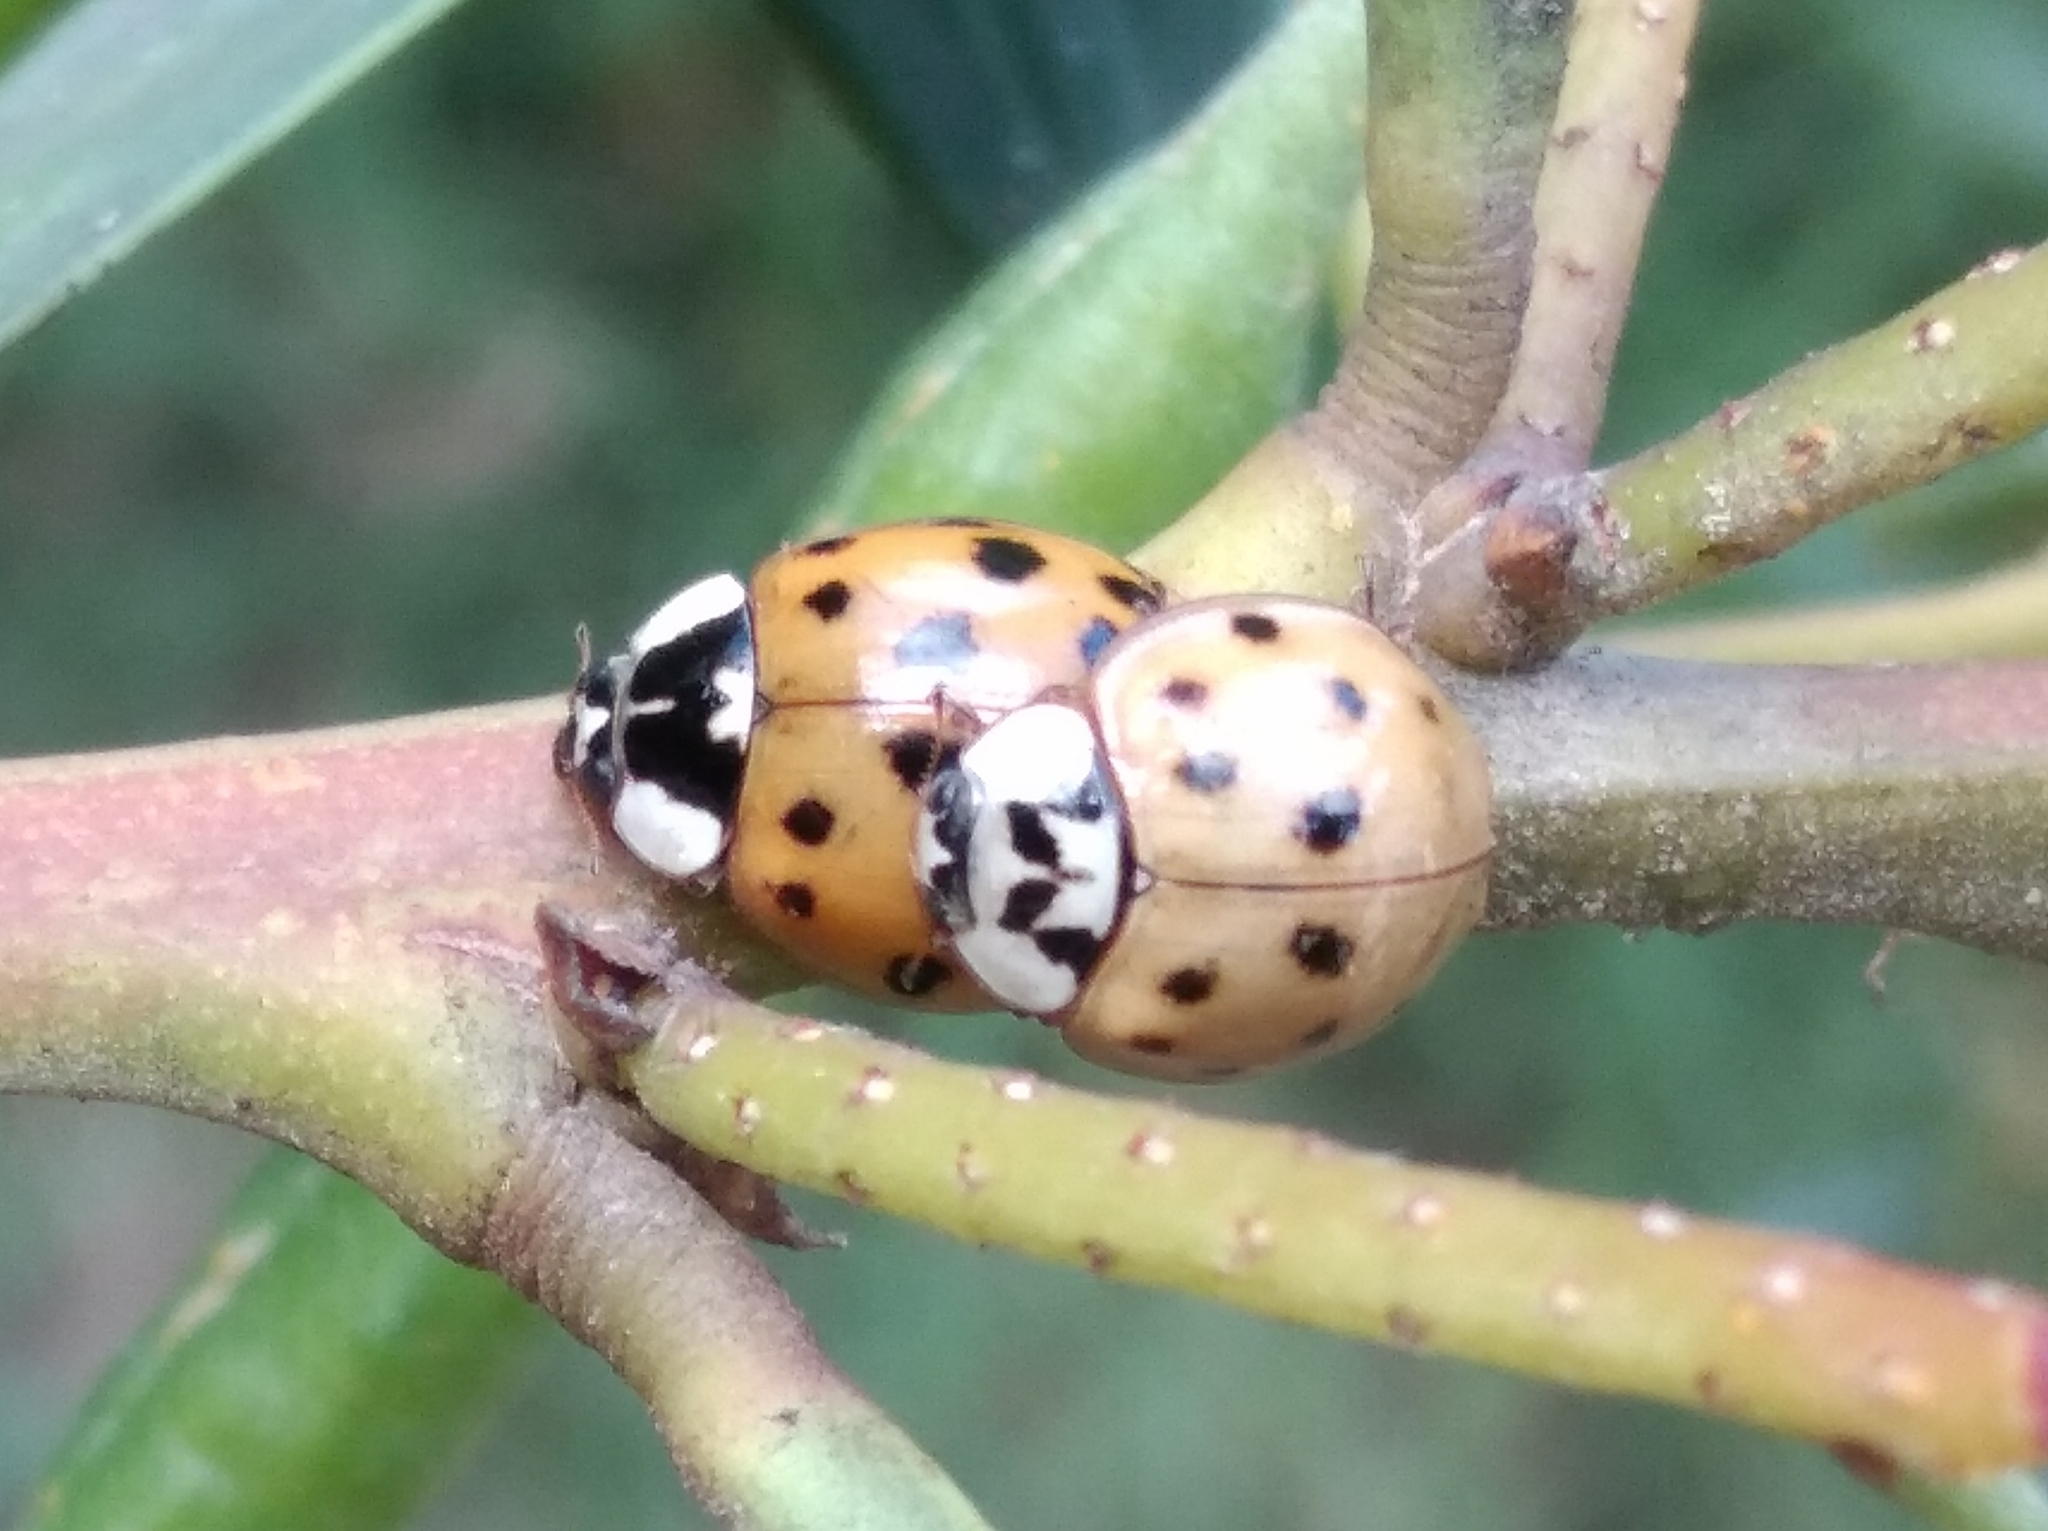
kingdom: Animalia
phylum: Arthropoda
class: Insecta
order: Coleoptera
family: Coccinellidae
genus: Harmonia
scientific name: Harmonia axyridis
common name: Harlequin ladybird
